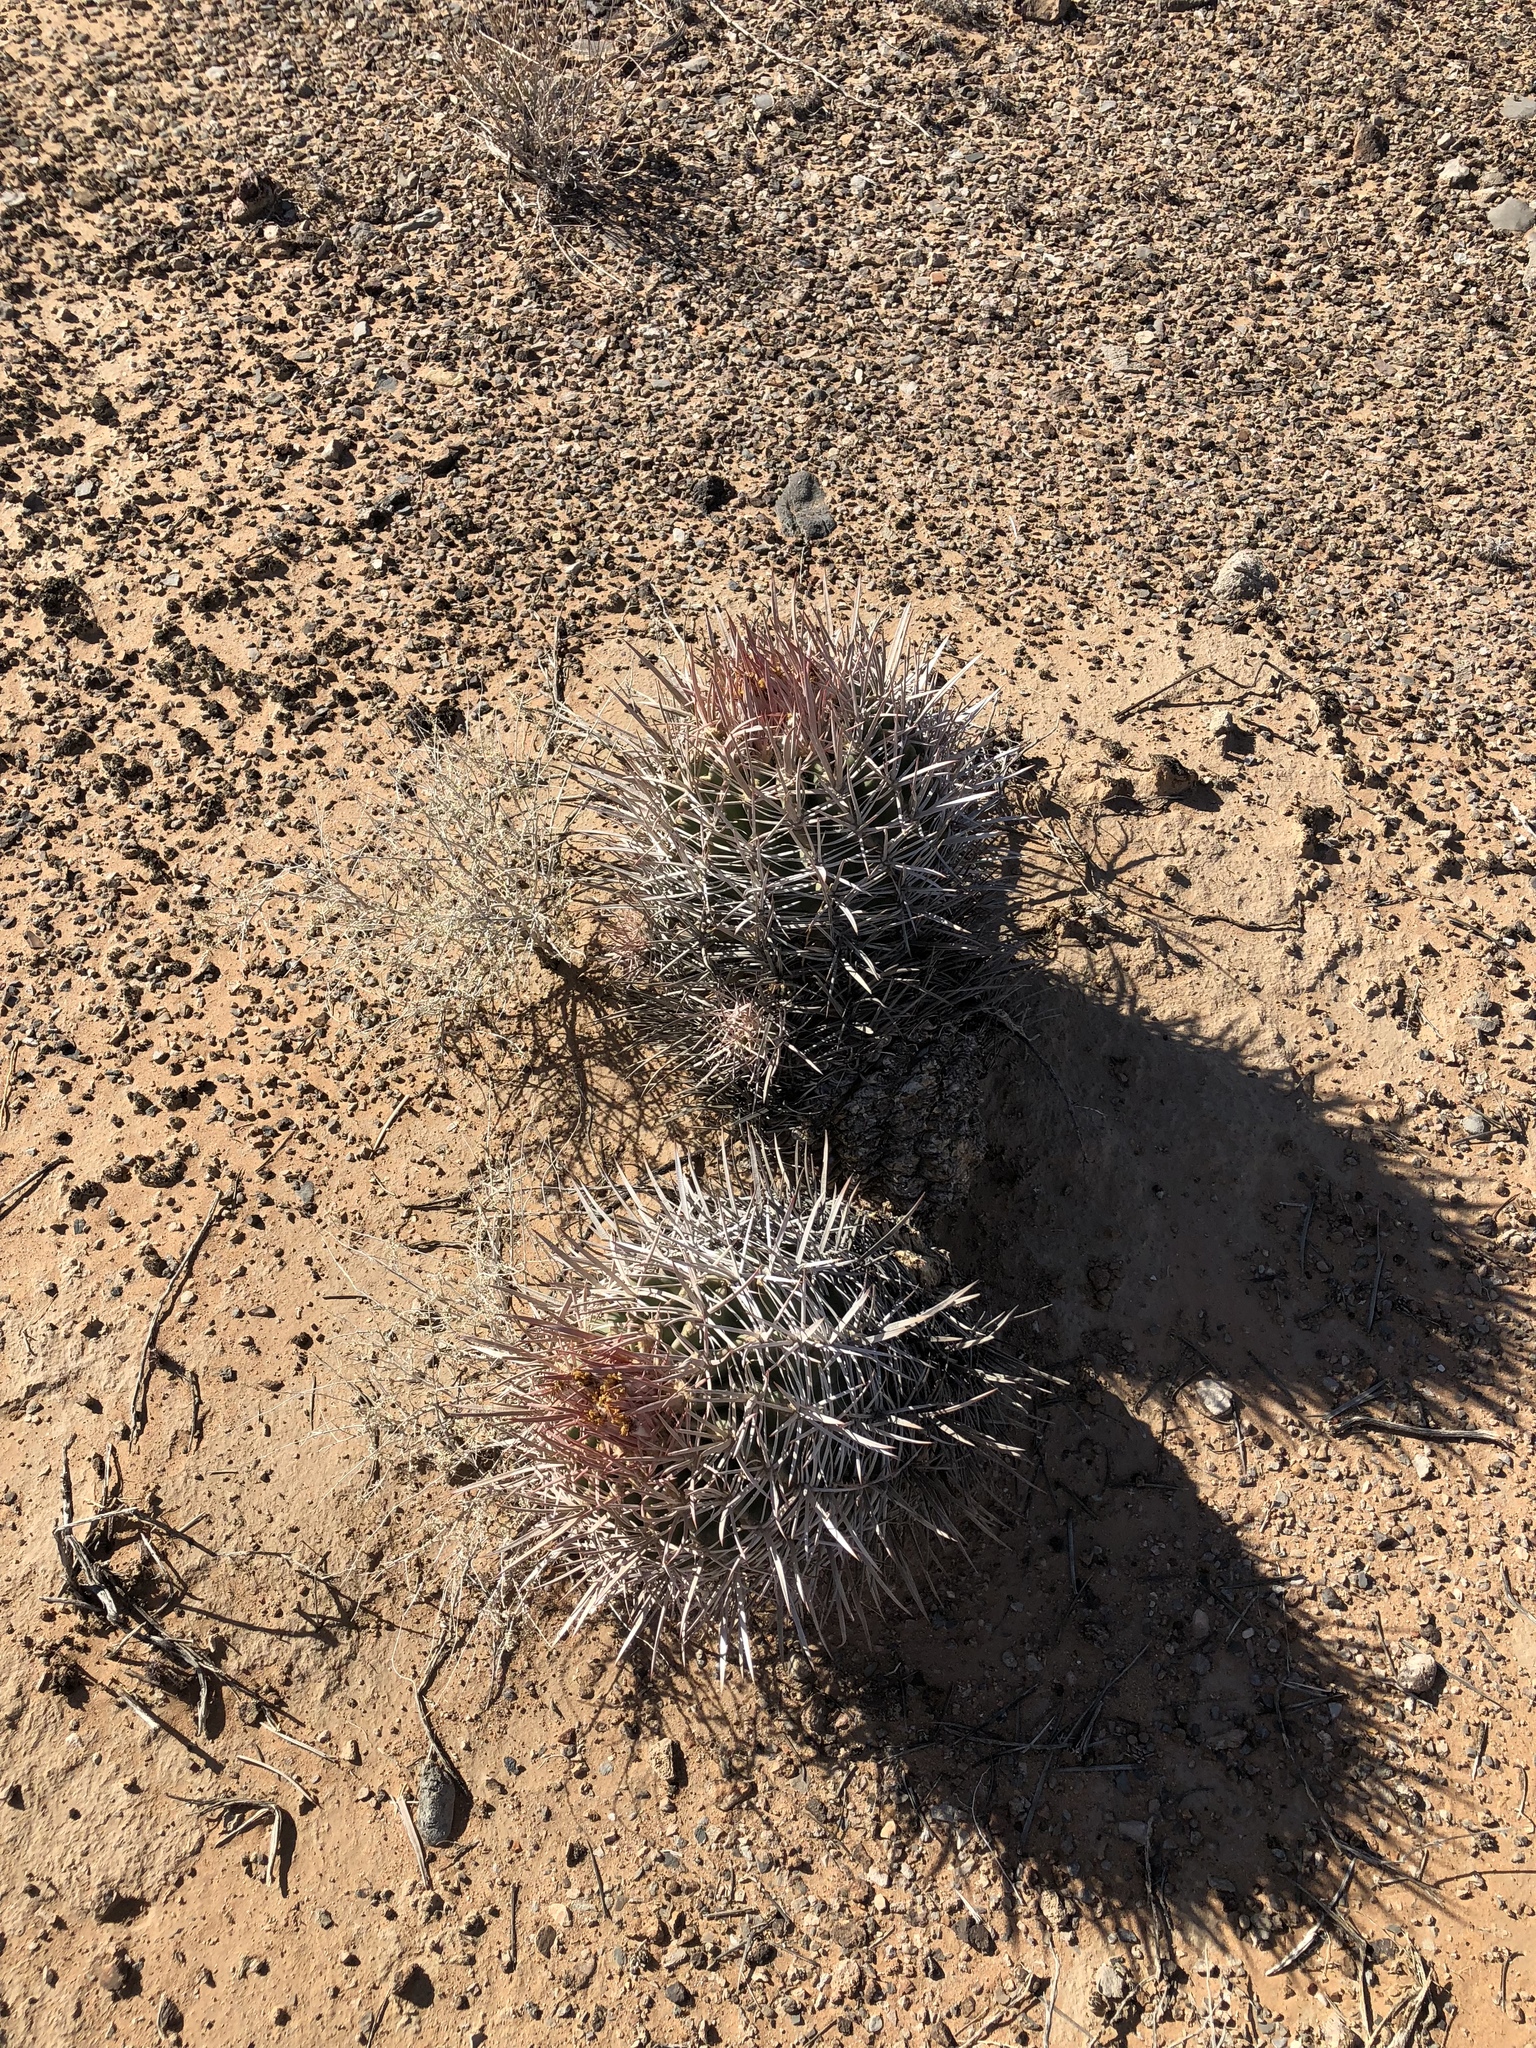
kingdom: Plantae
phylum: Tracheophyta
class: Magnoliopsida
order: Caryophyllales
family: Cactaceae
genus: Echinocactus
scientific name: Echinocactus polycephalus
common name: Cottontop cactus
